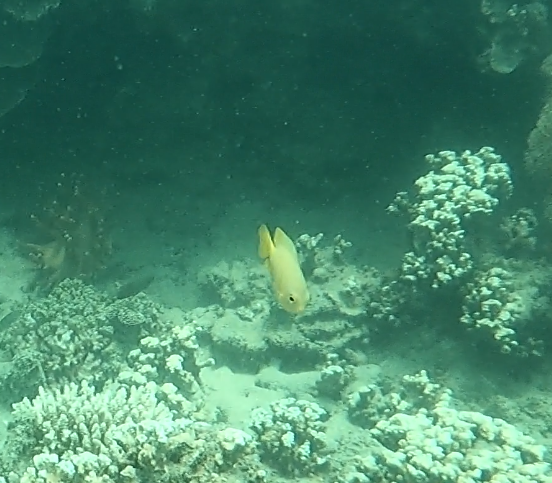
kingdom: Animalia
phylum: Chordata
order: Perciformes
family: Pomacentridae
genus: Pomacentrus
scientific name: Pomacentrus moluccensis
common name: Lemon damsel
